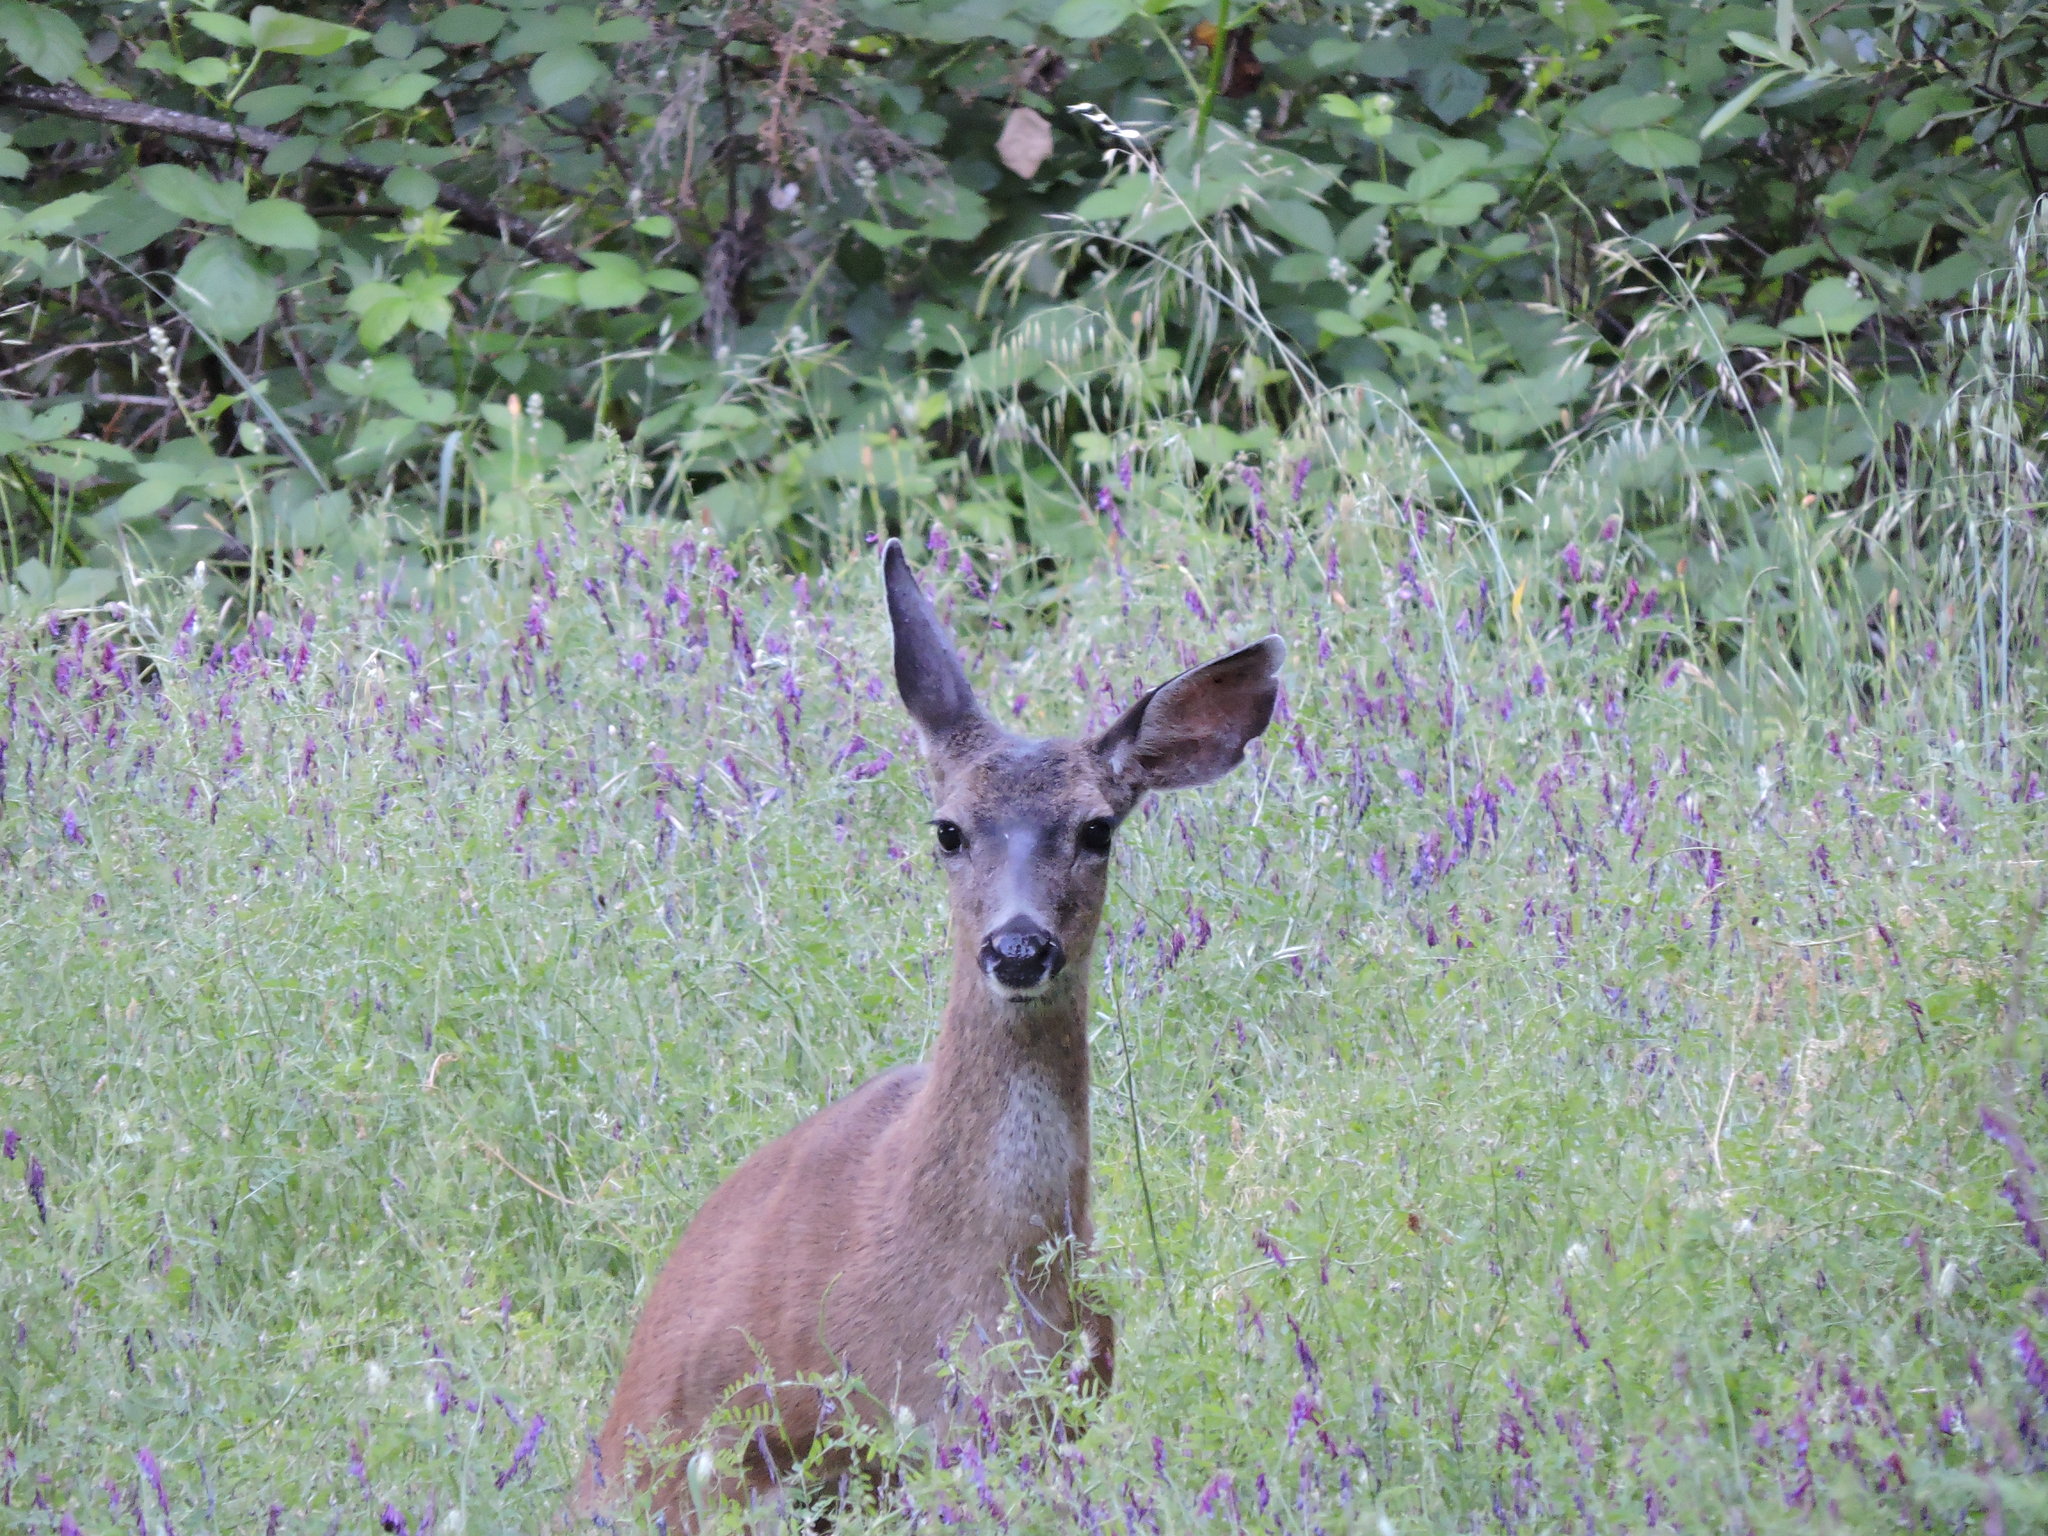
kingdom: Animalia
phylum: Chordata
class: Mammalia
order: Artiodactyla
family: Cervidae
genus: Odocoileus
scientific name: Odocoileus hemionus
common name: Mule deer
